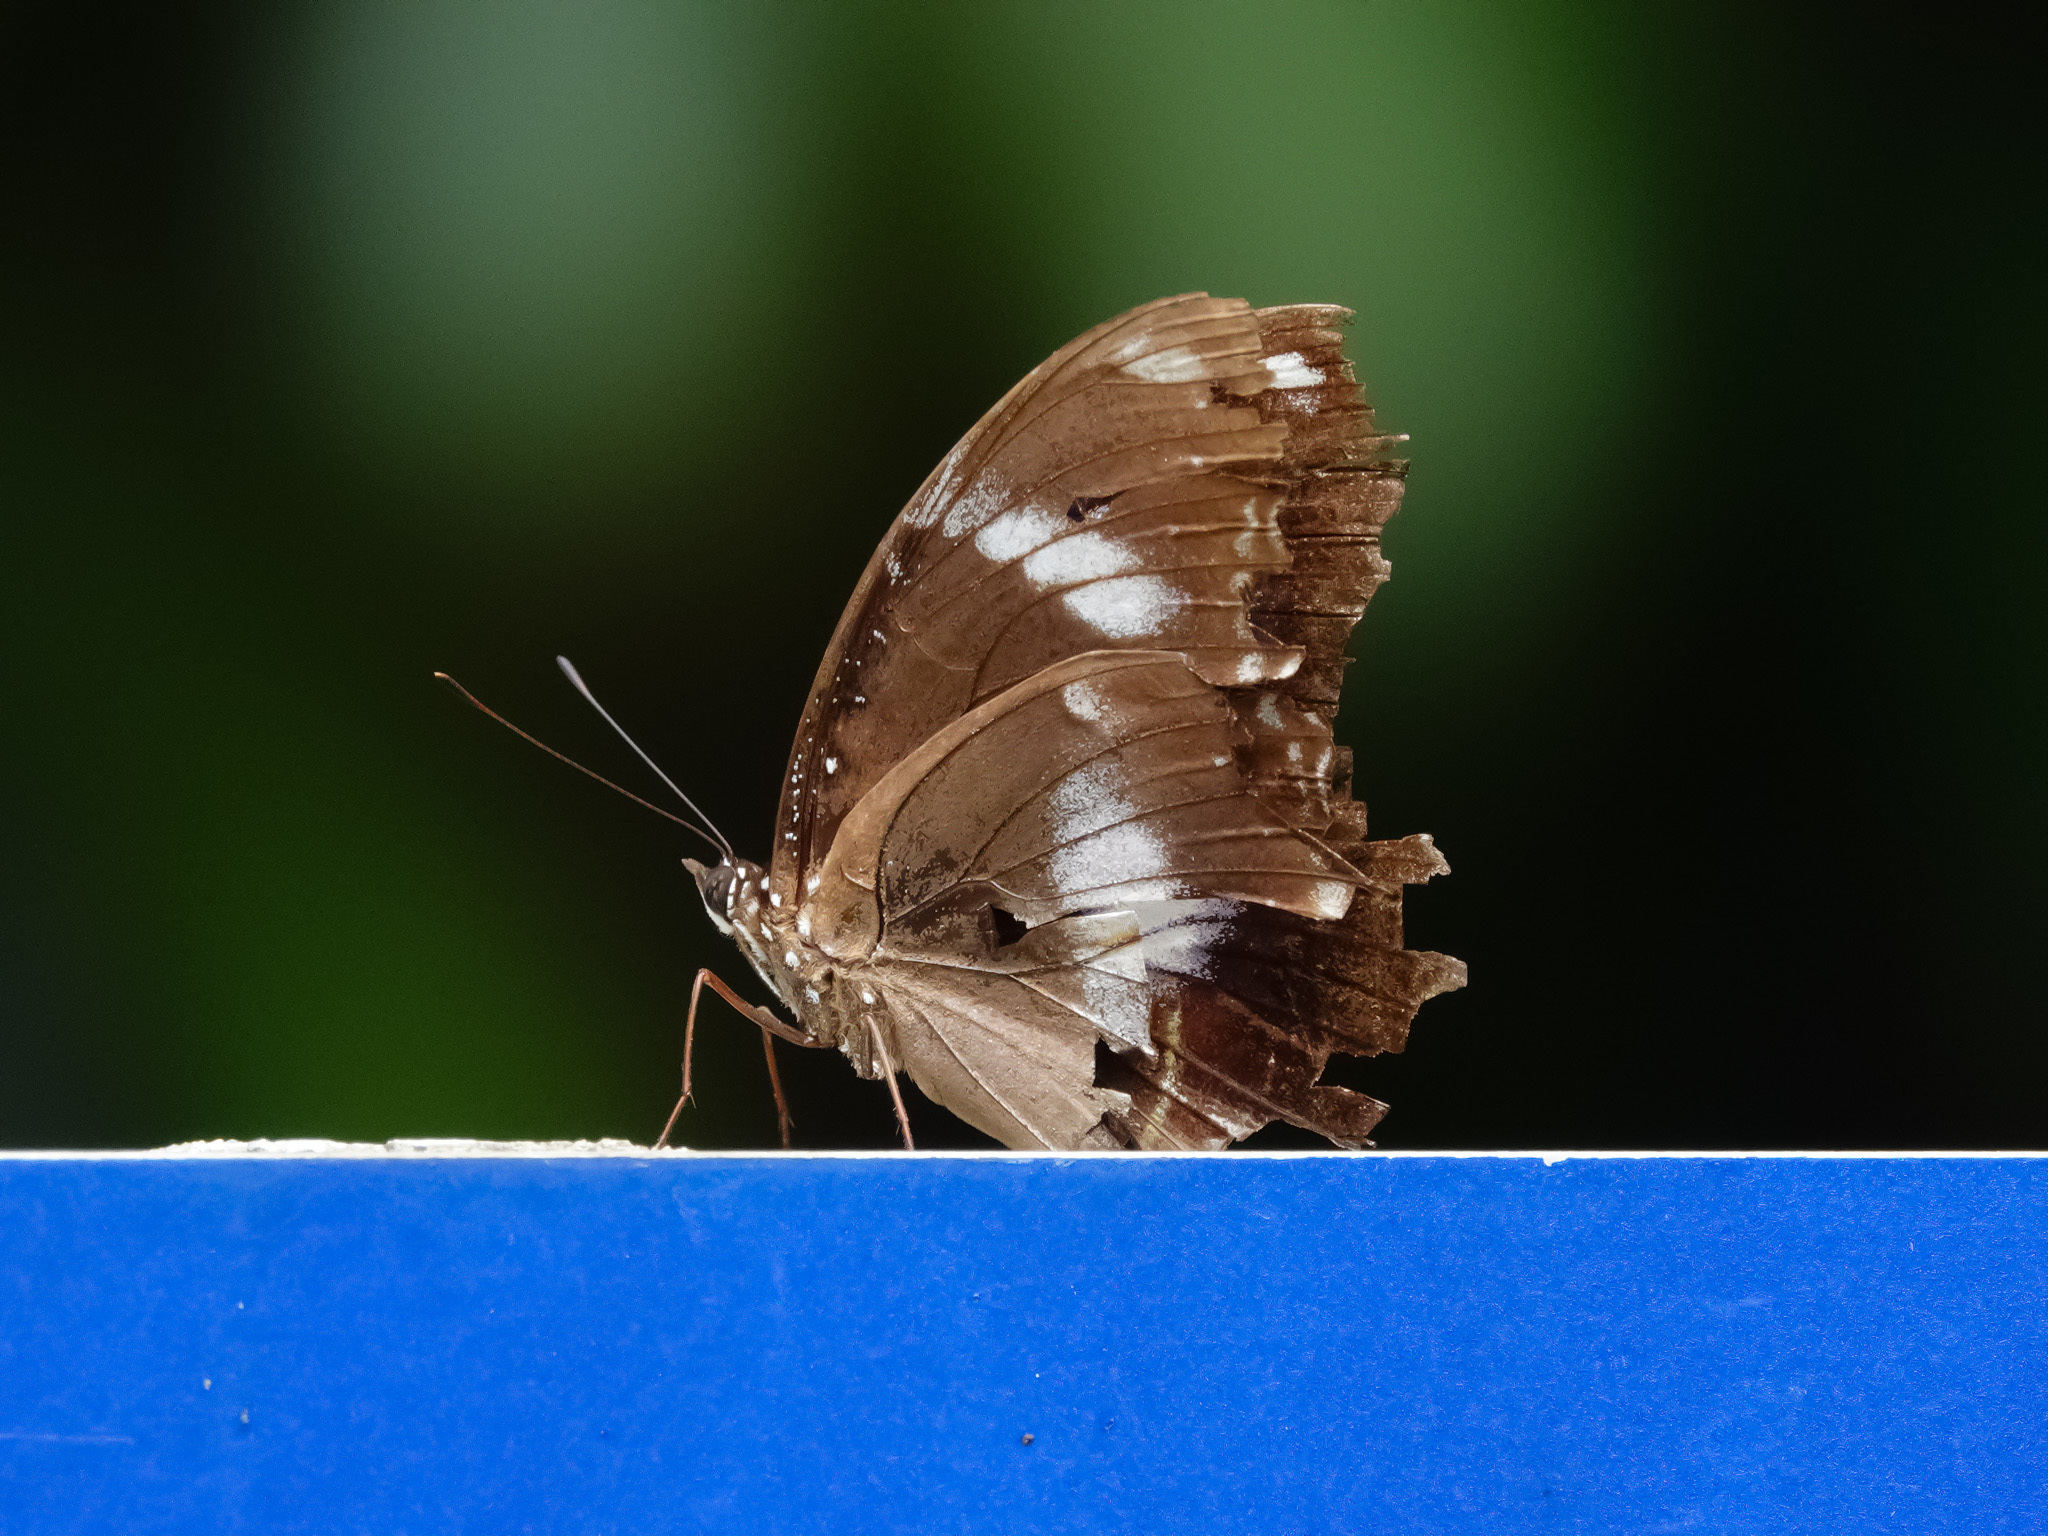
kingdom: Animalia
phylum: Arthropoda
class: Insecta
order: Lepidoptera
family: Nymphalidae
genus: Hypolimnas
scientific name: Hypolimnas bolina
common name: Great eggfly
